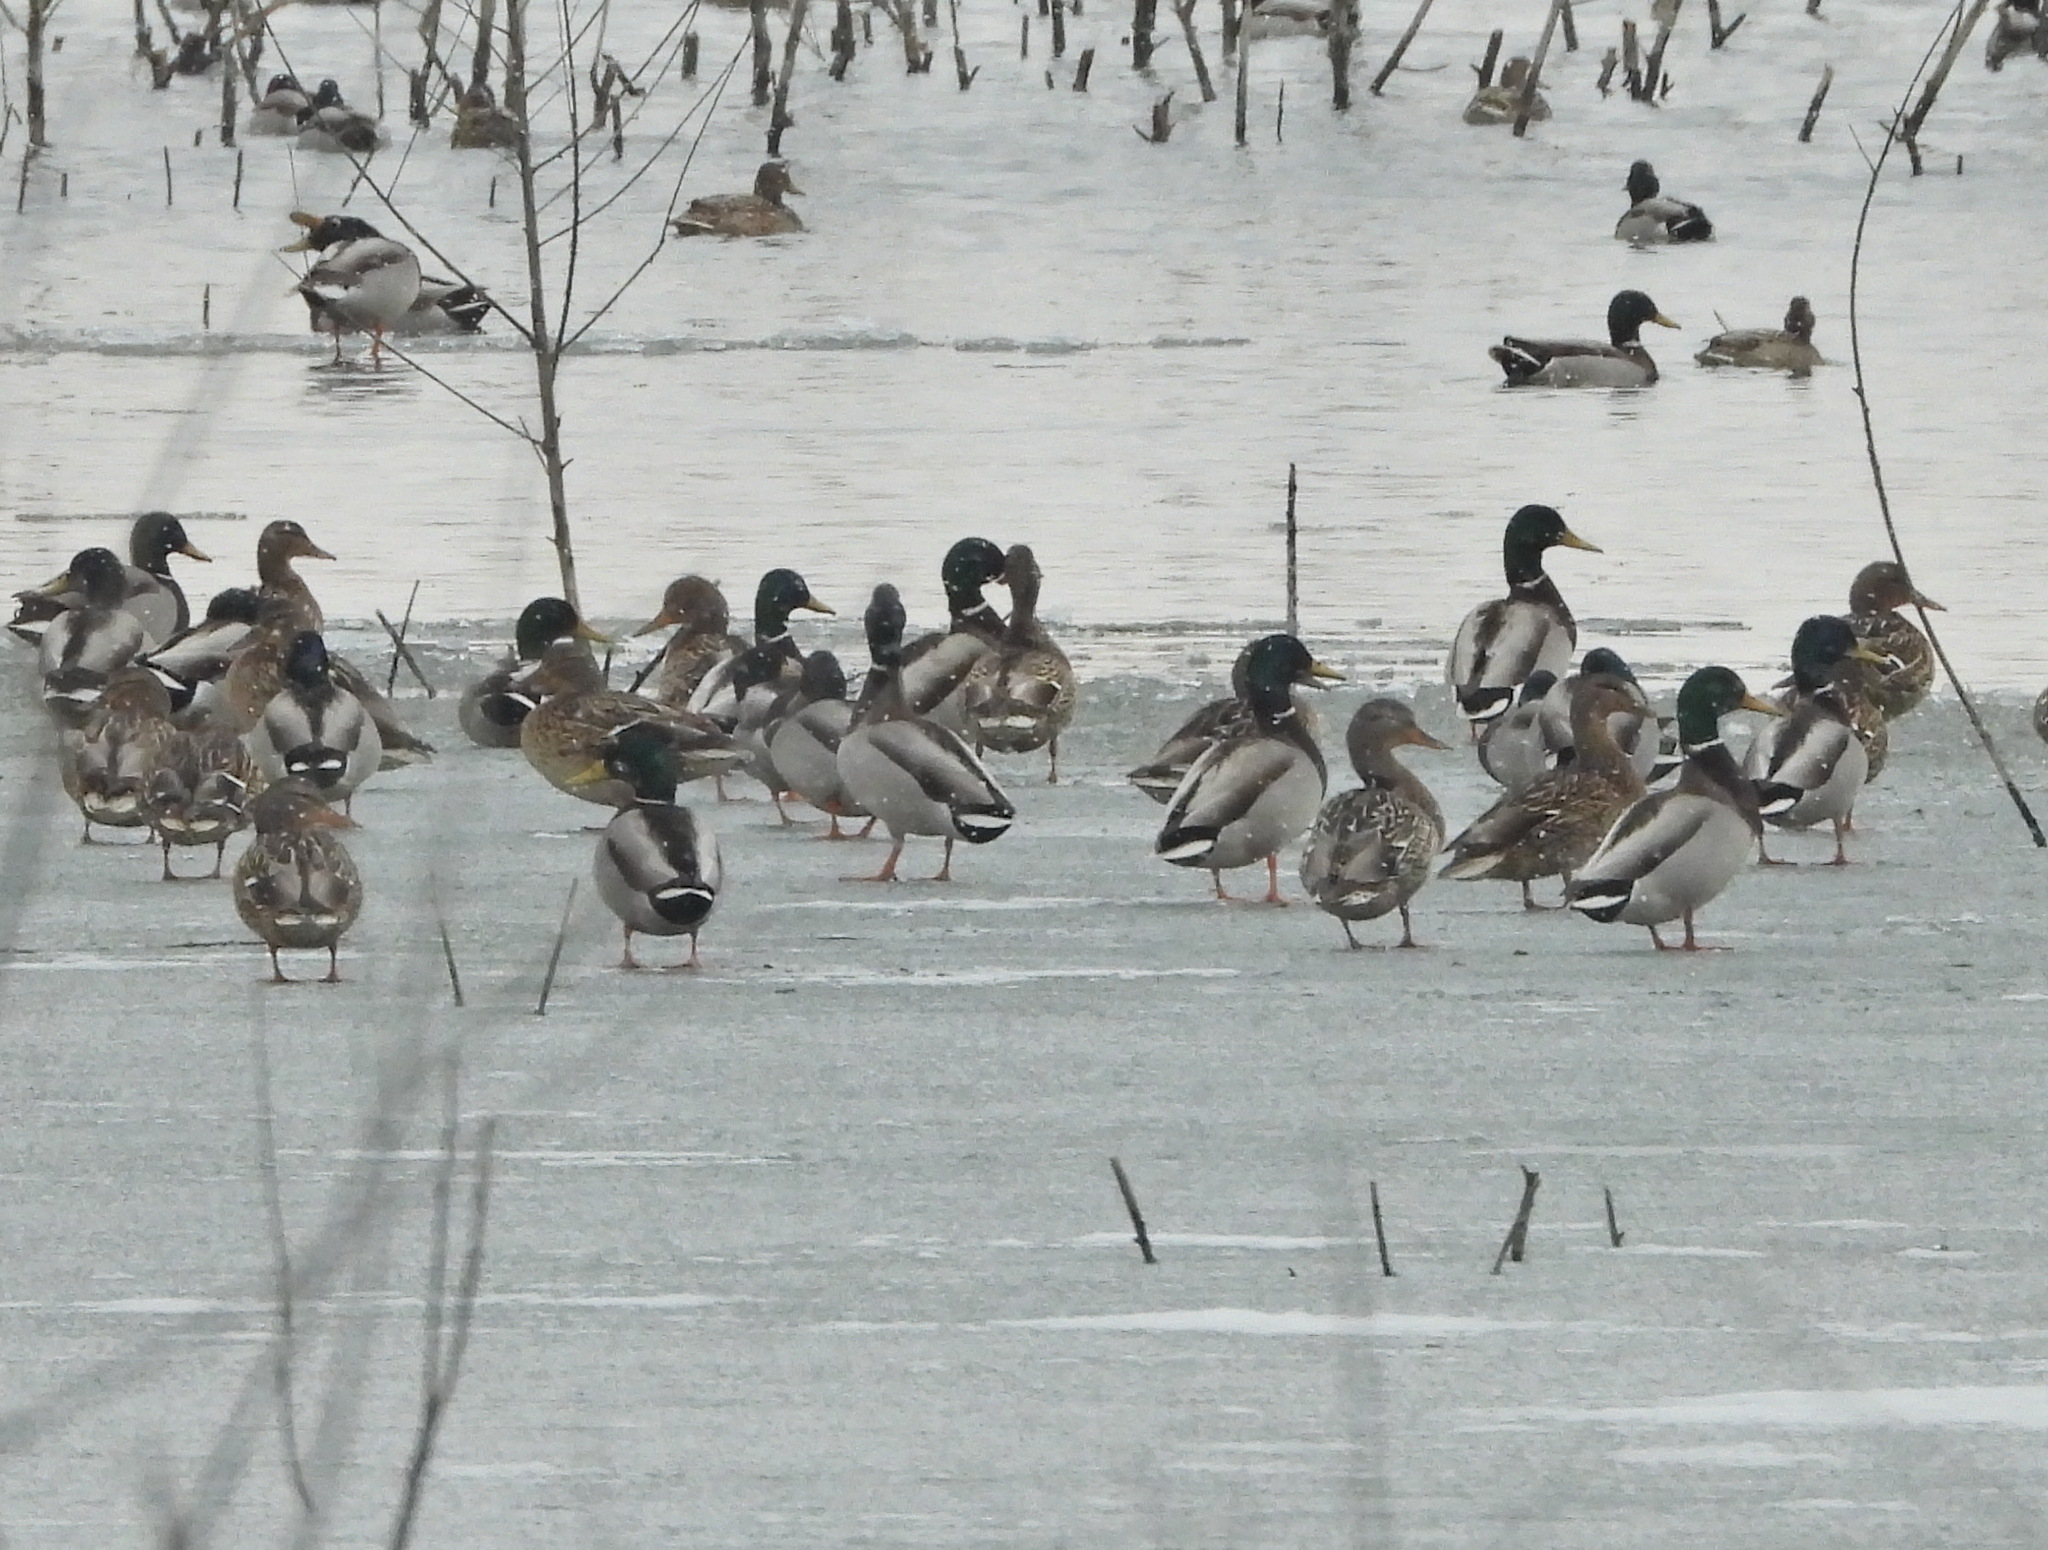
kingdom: Animalia
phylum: Chordata
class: Aves
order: Anseriformes
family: Anatidae
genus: Anas
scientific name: Anas platyrhynchos
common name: Mallard
